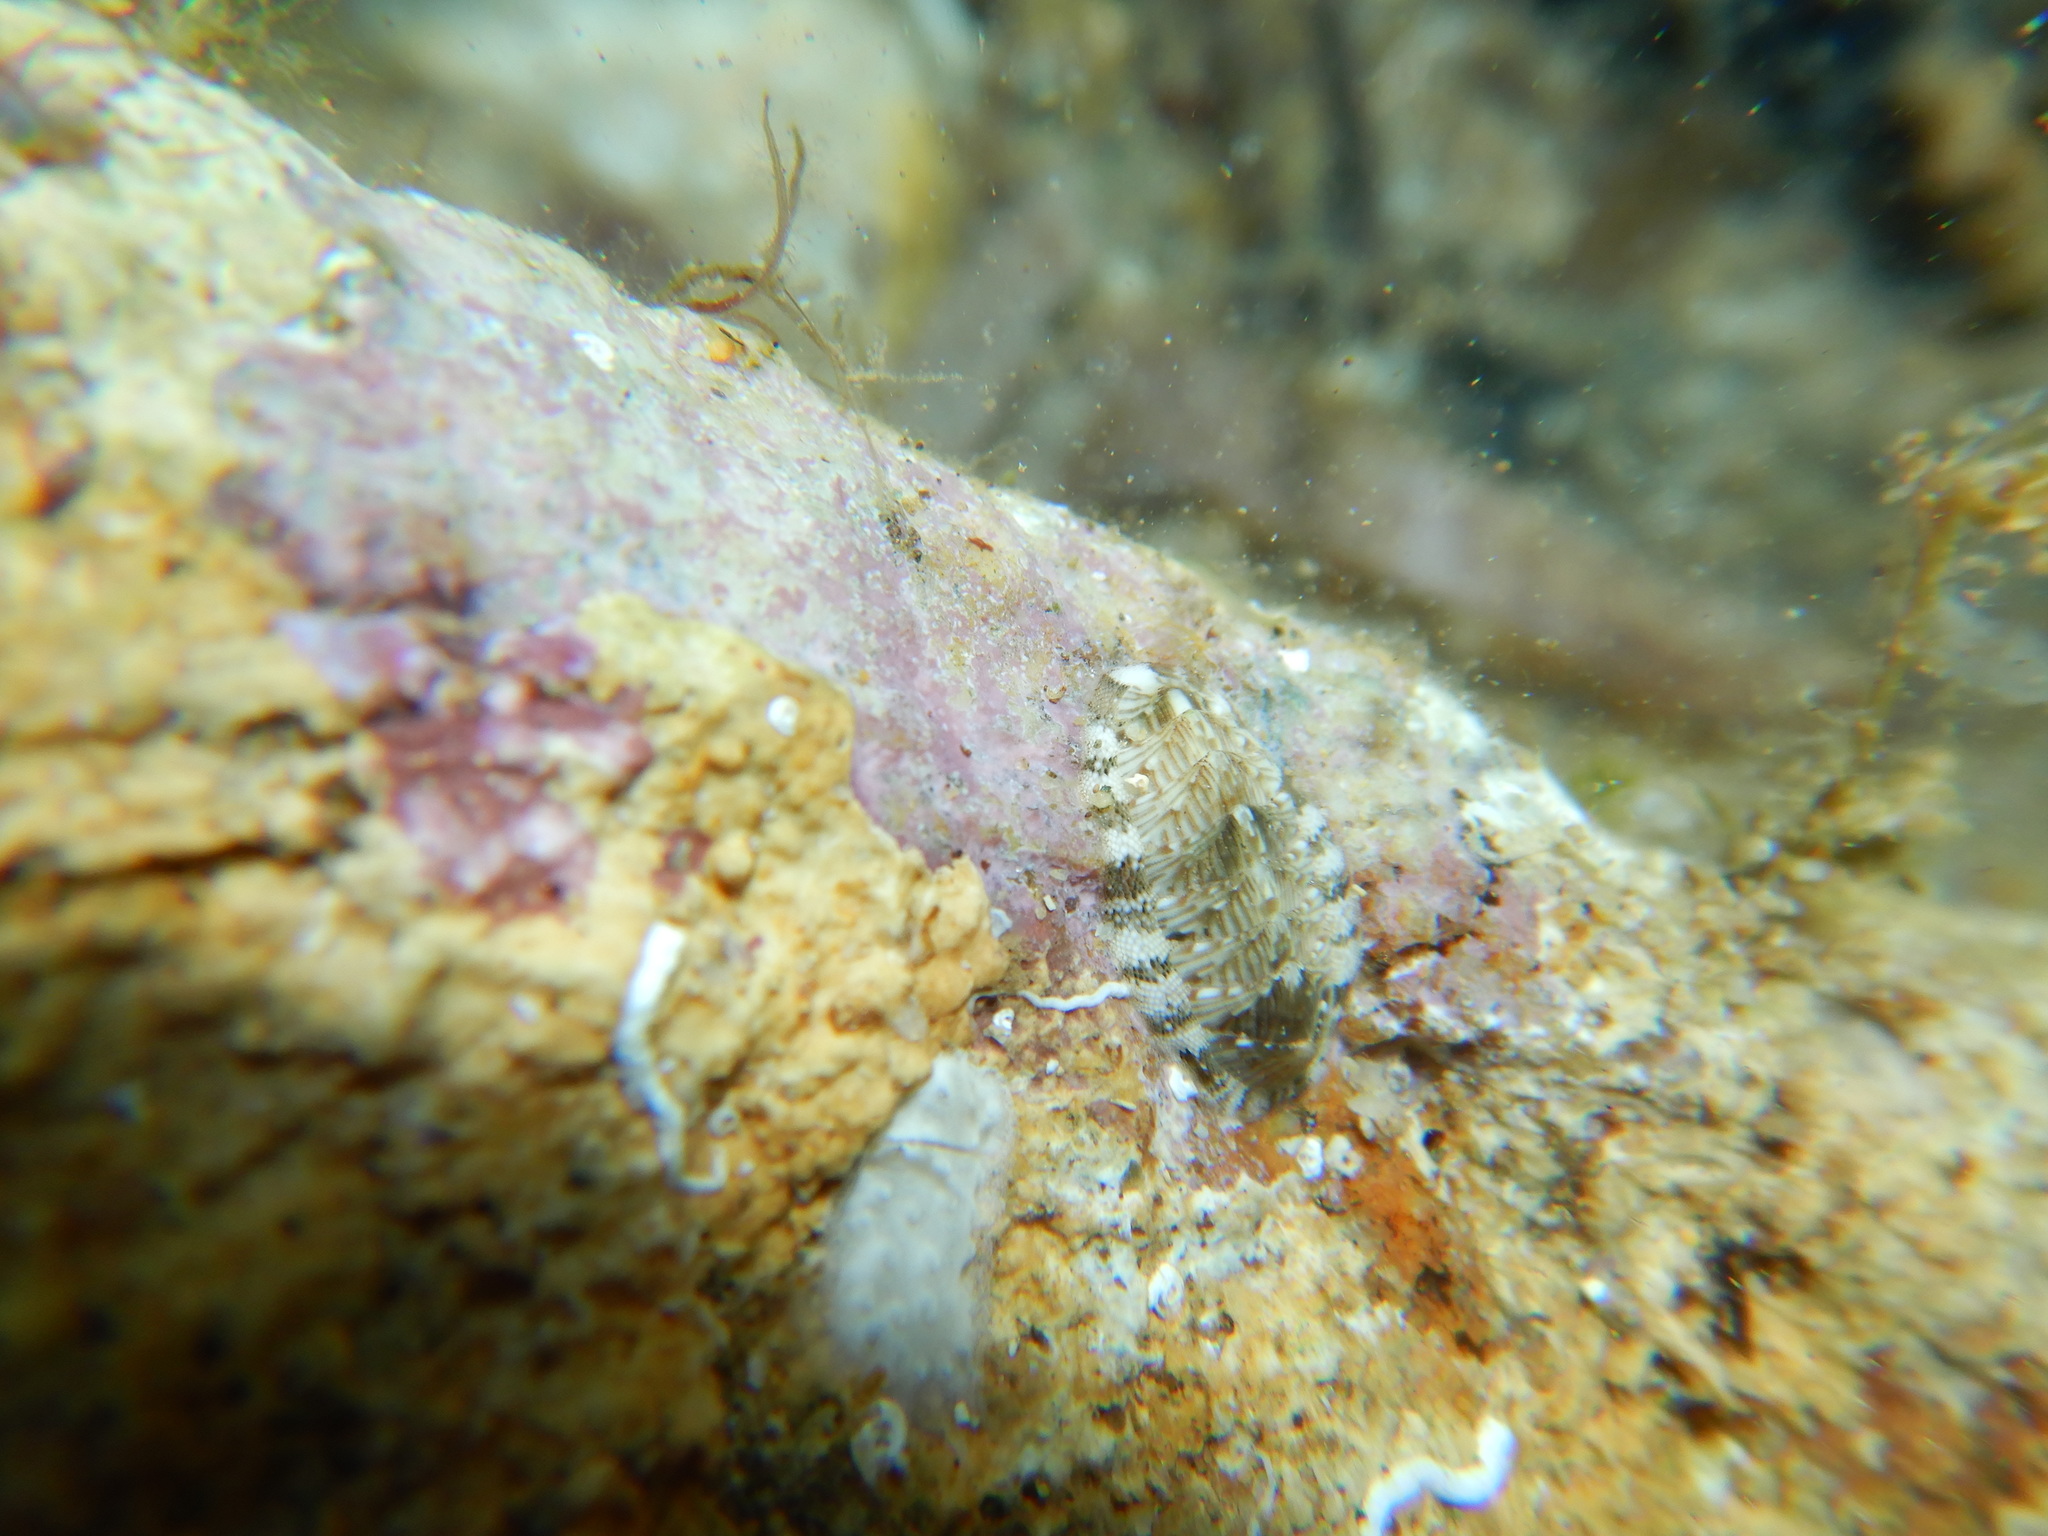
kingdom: Animalia
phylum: Mollusca
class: Polyplacophora
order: Chitonida
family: Chitonidae
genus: Rhyssoplax
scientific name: Rhyssoplax olivacea
